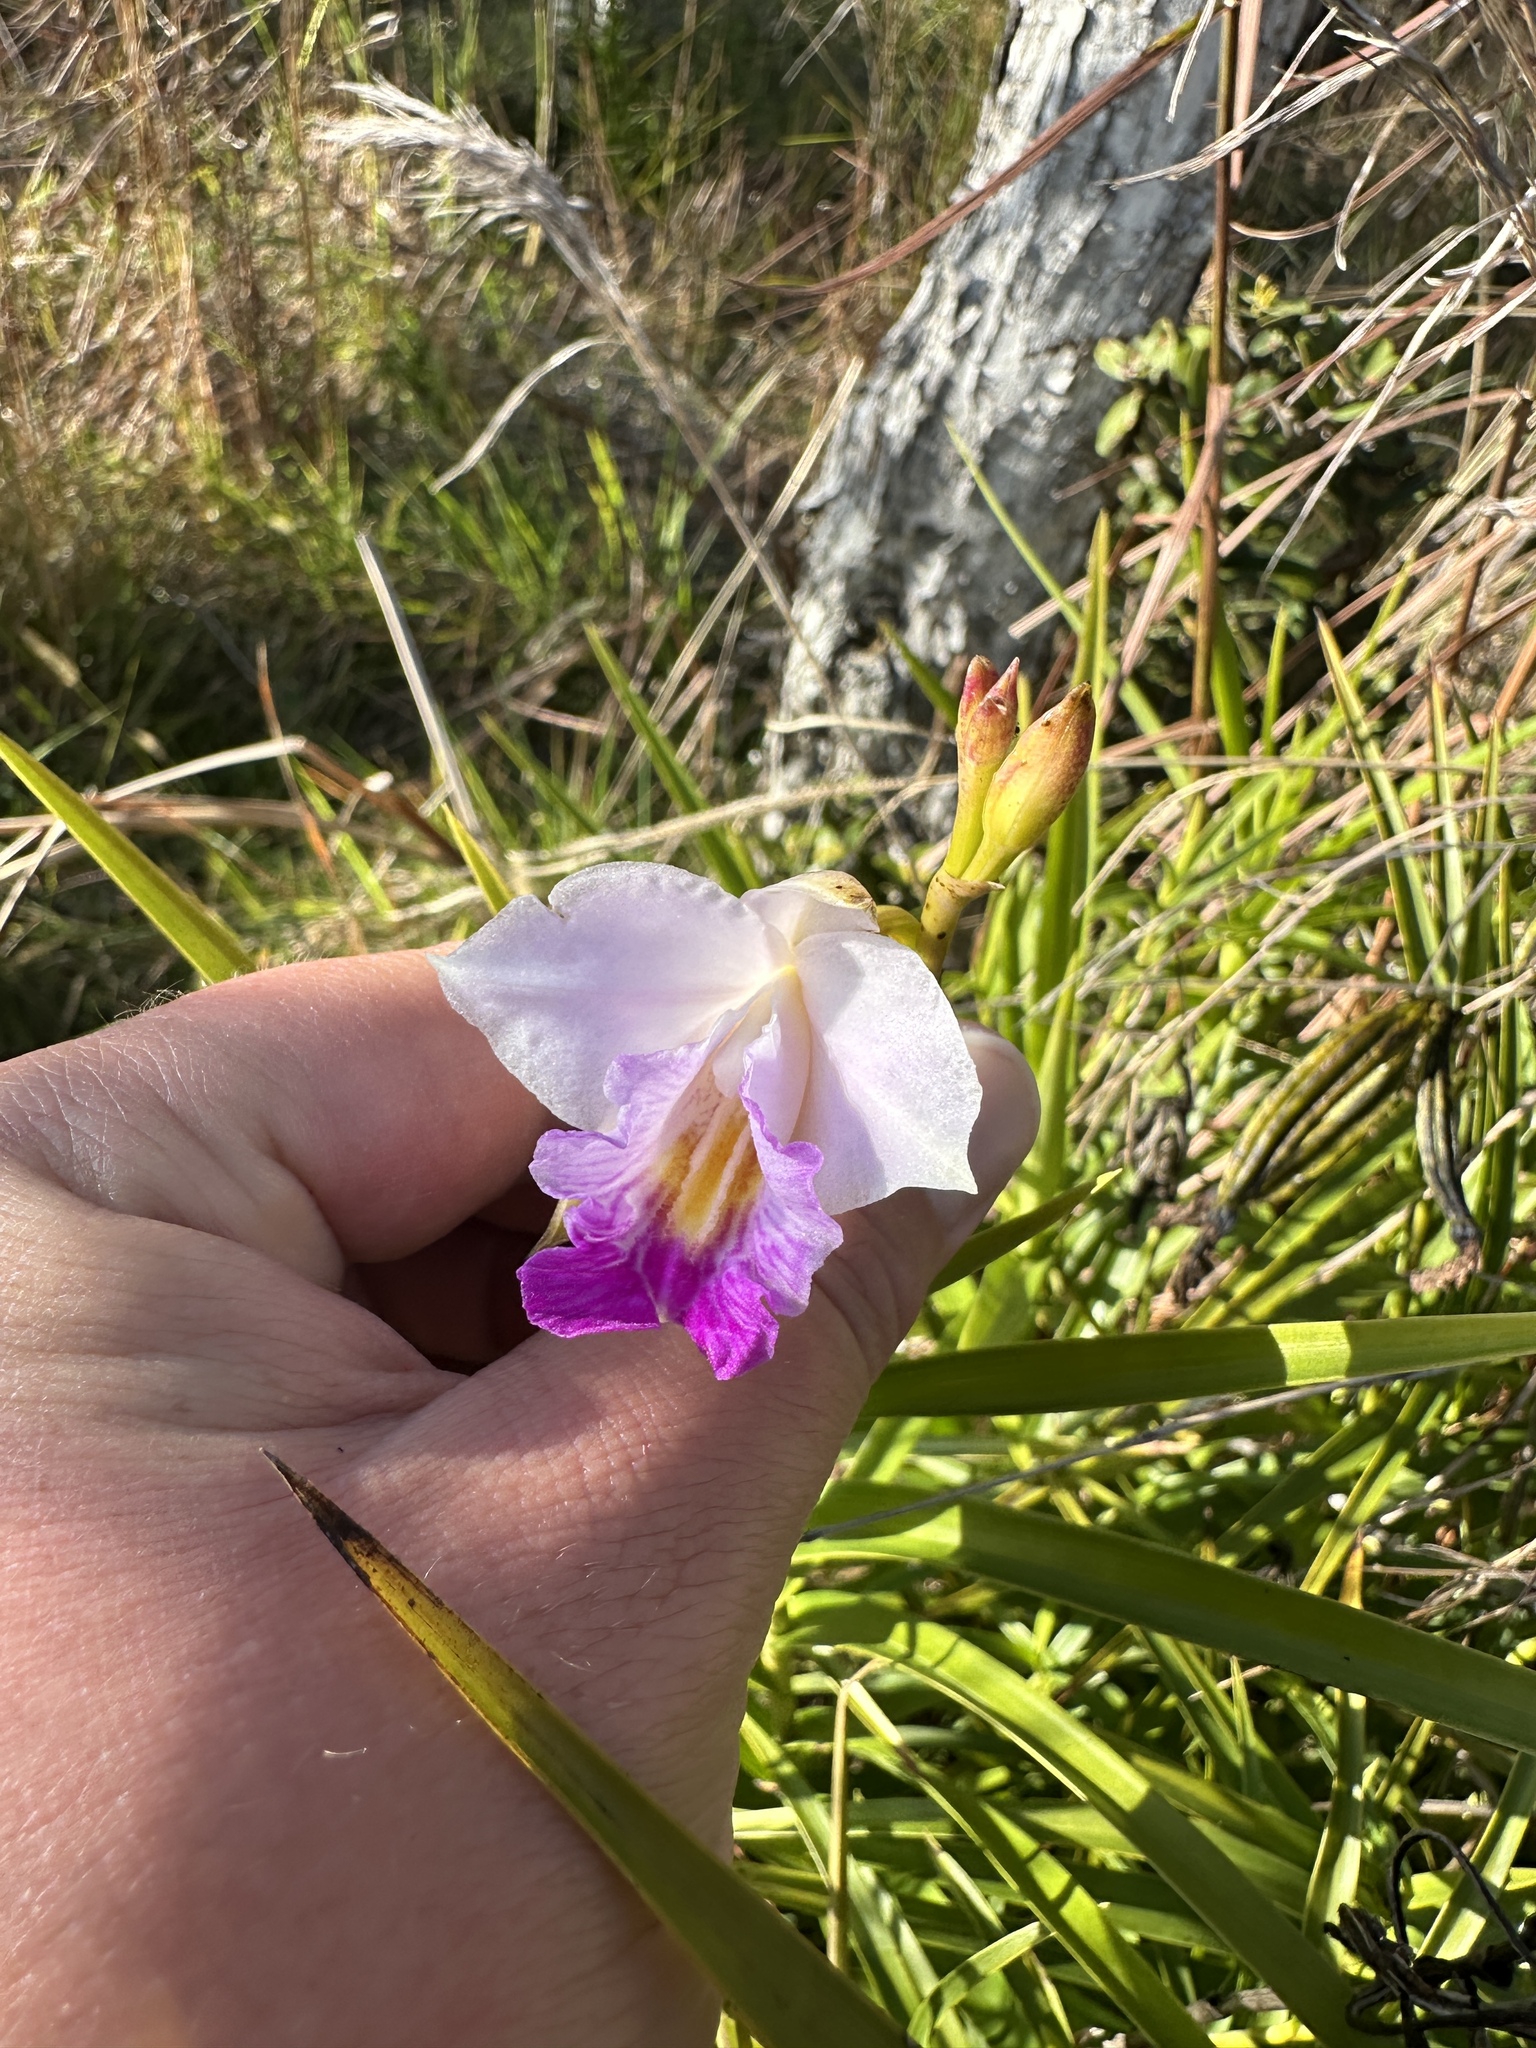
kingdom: Plantae
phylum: Tracheophyta
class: Liliopsida
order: Asparagales
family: Orchidaceae
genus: Arundina
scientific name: Arundina graminifolia
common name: Bamboo orchid
